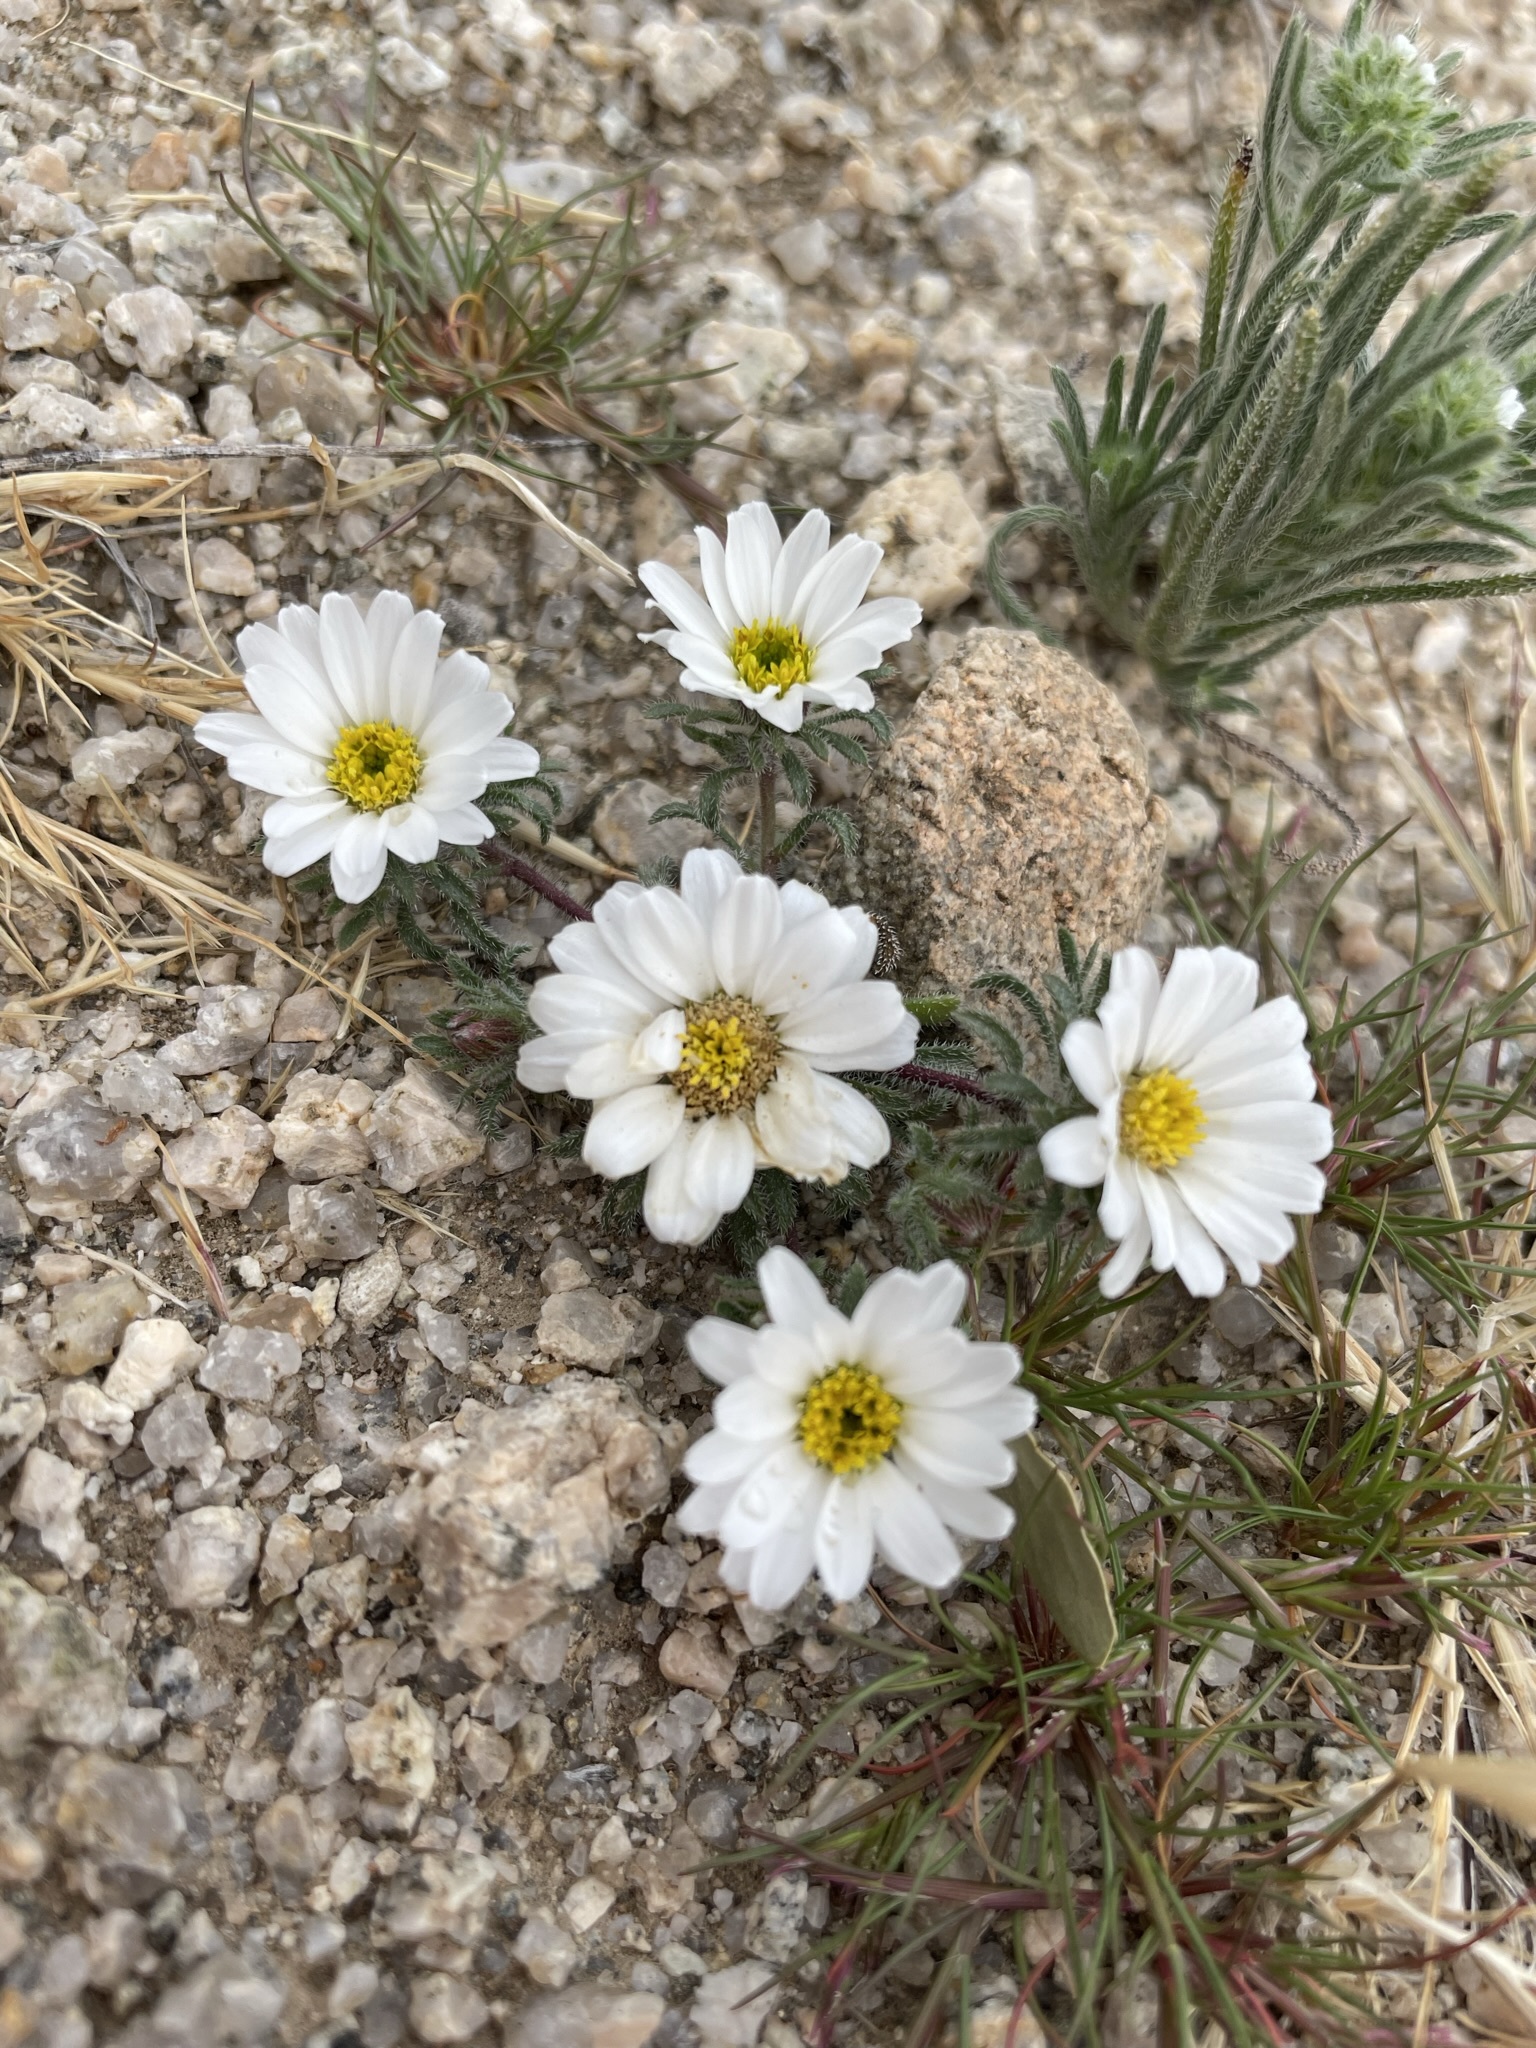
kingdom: Plantae
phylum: Tracheophyta
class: Magnoliopsida
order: Asterales
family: Asteraceae
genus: Monoptilon
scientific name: Monoptilon bellioides
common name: Bristly desertstar
